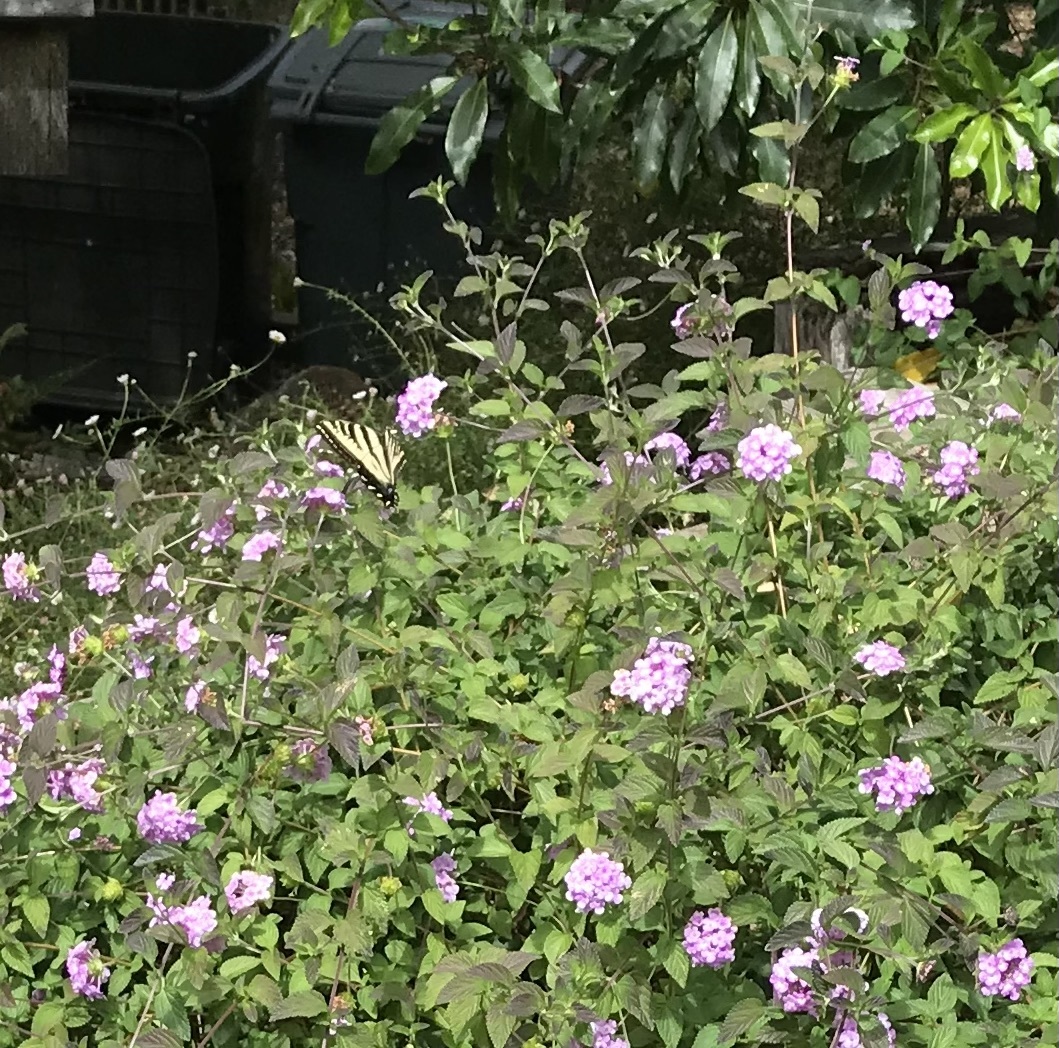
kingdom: Animalia
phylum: Arthropoda
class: Insecta
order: Lepidoptera
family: Papilionidae
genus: Papilio
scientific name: Papilio rutulus
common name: Western tiger swallowtail
